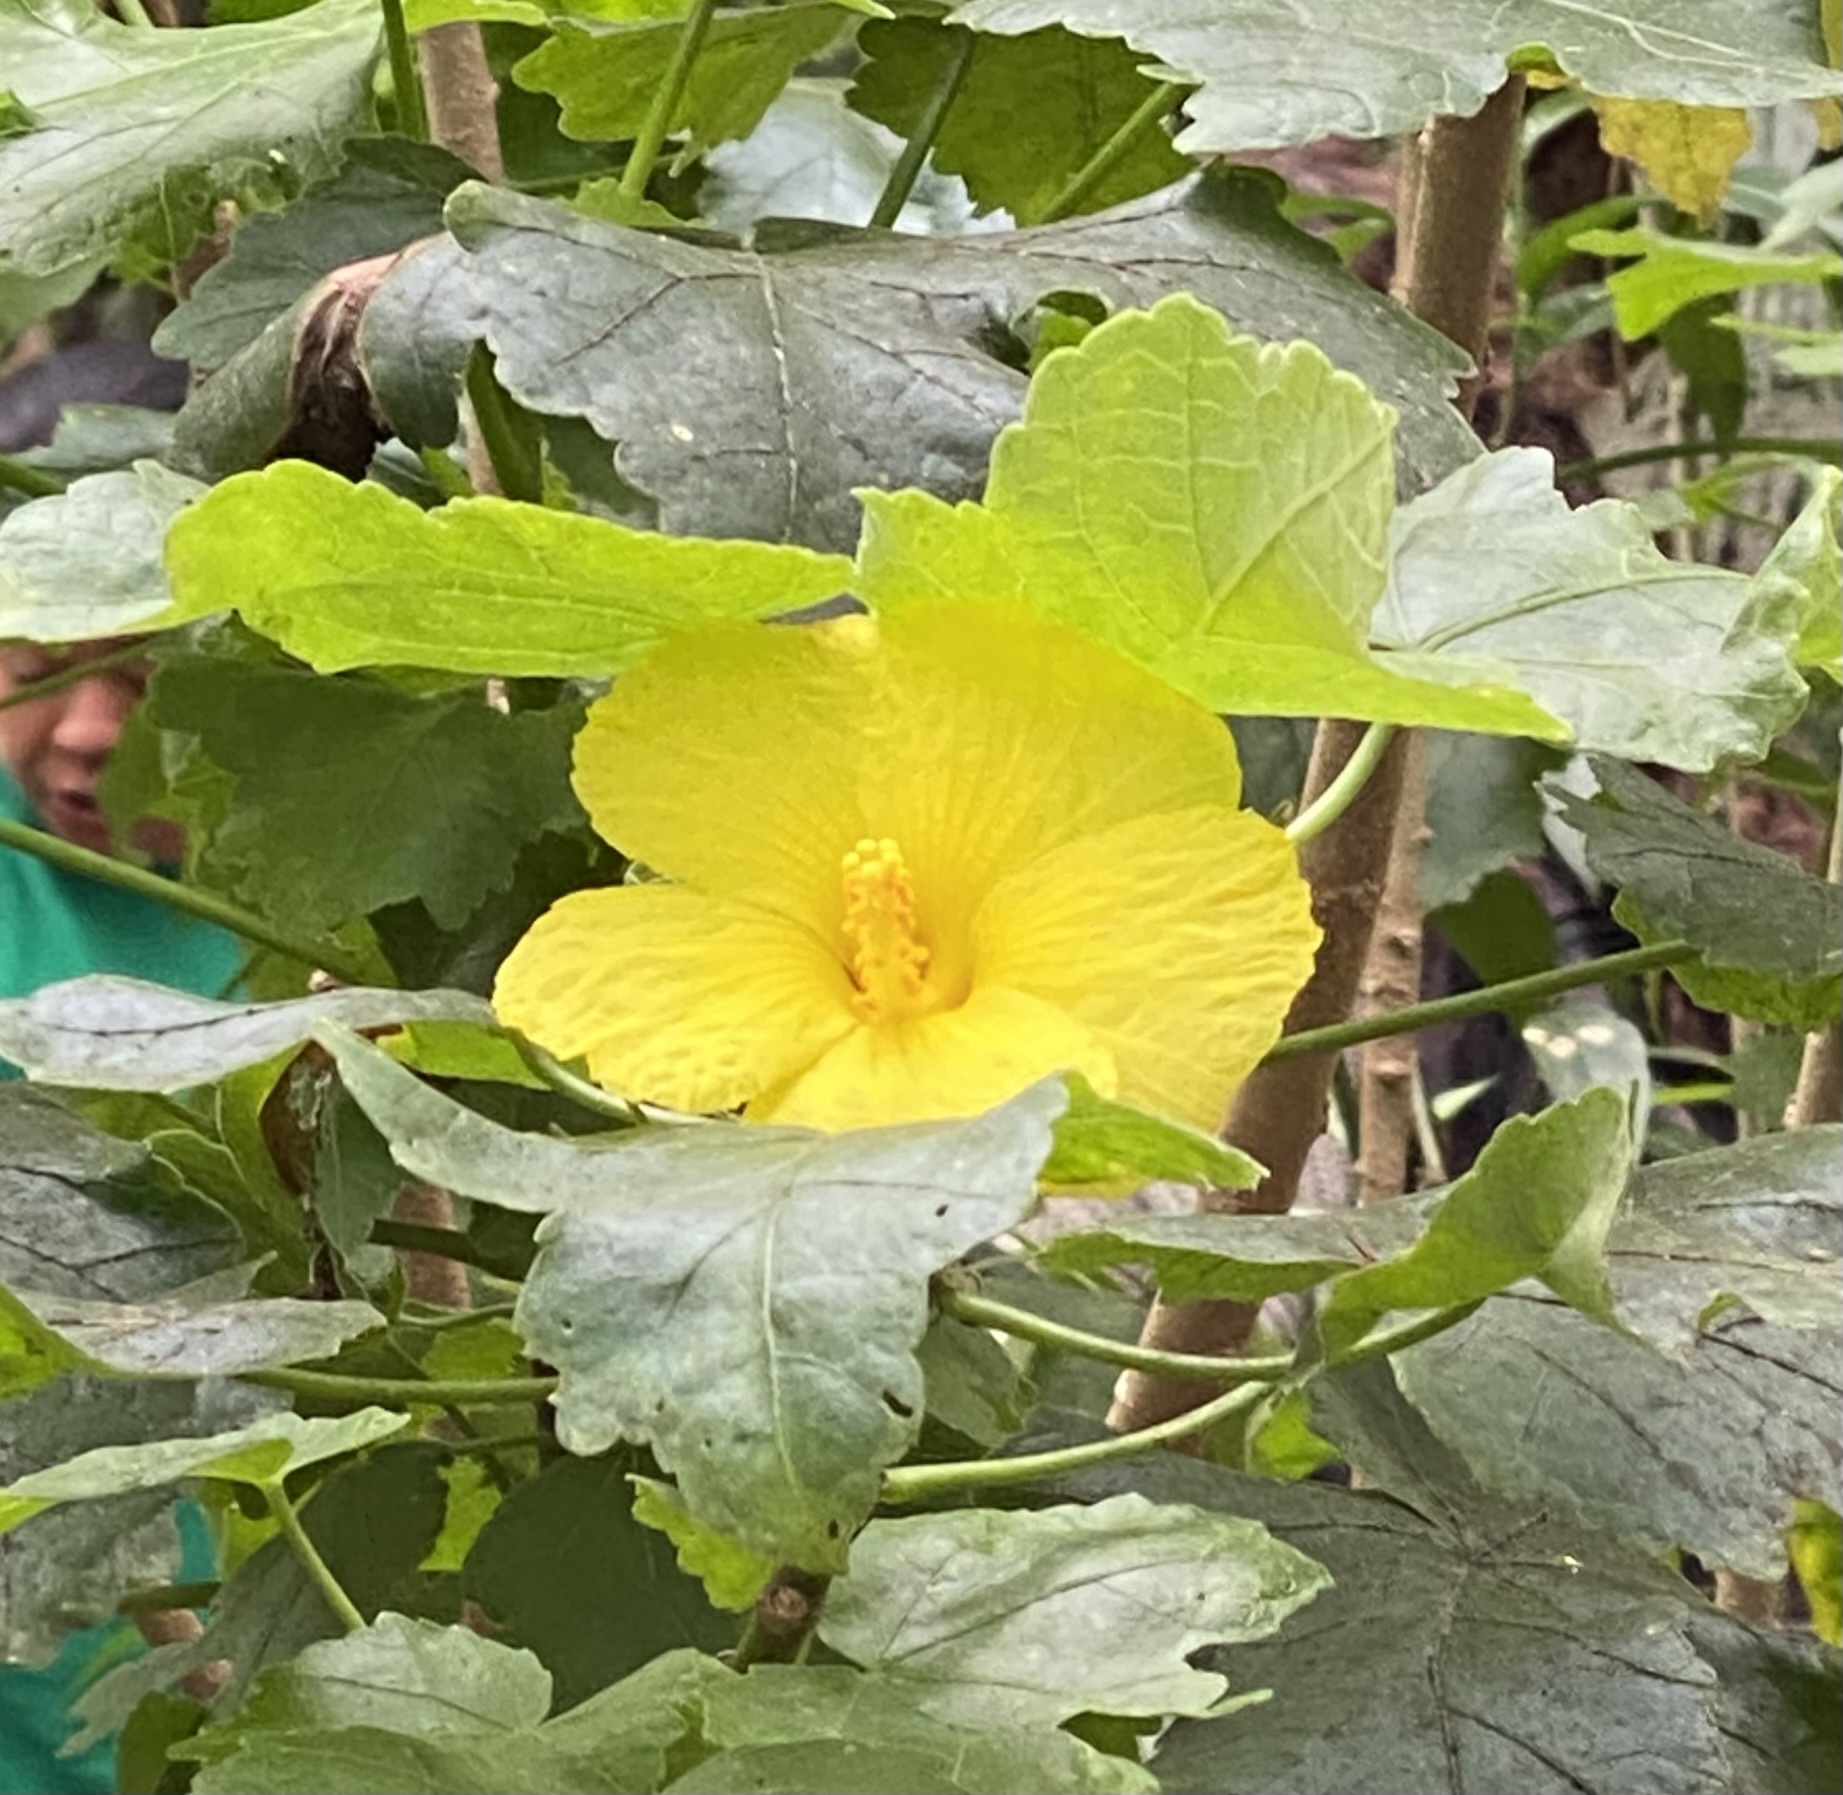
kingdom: Plantae
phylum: Tracheophyta
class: Magnoliopsida
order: Malvales
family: Malvaceae
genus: Hibiscus
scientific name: Hibiscus brackenridgei
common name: Native yellow hibiscus
